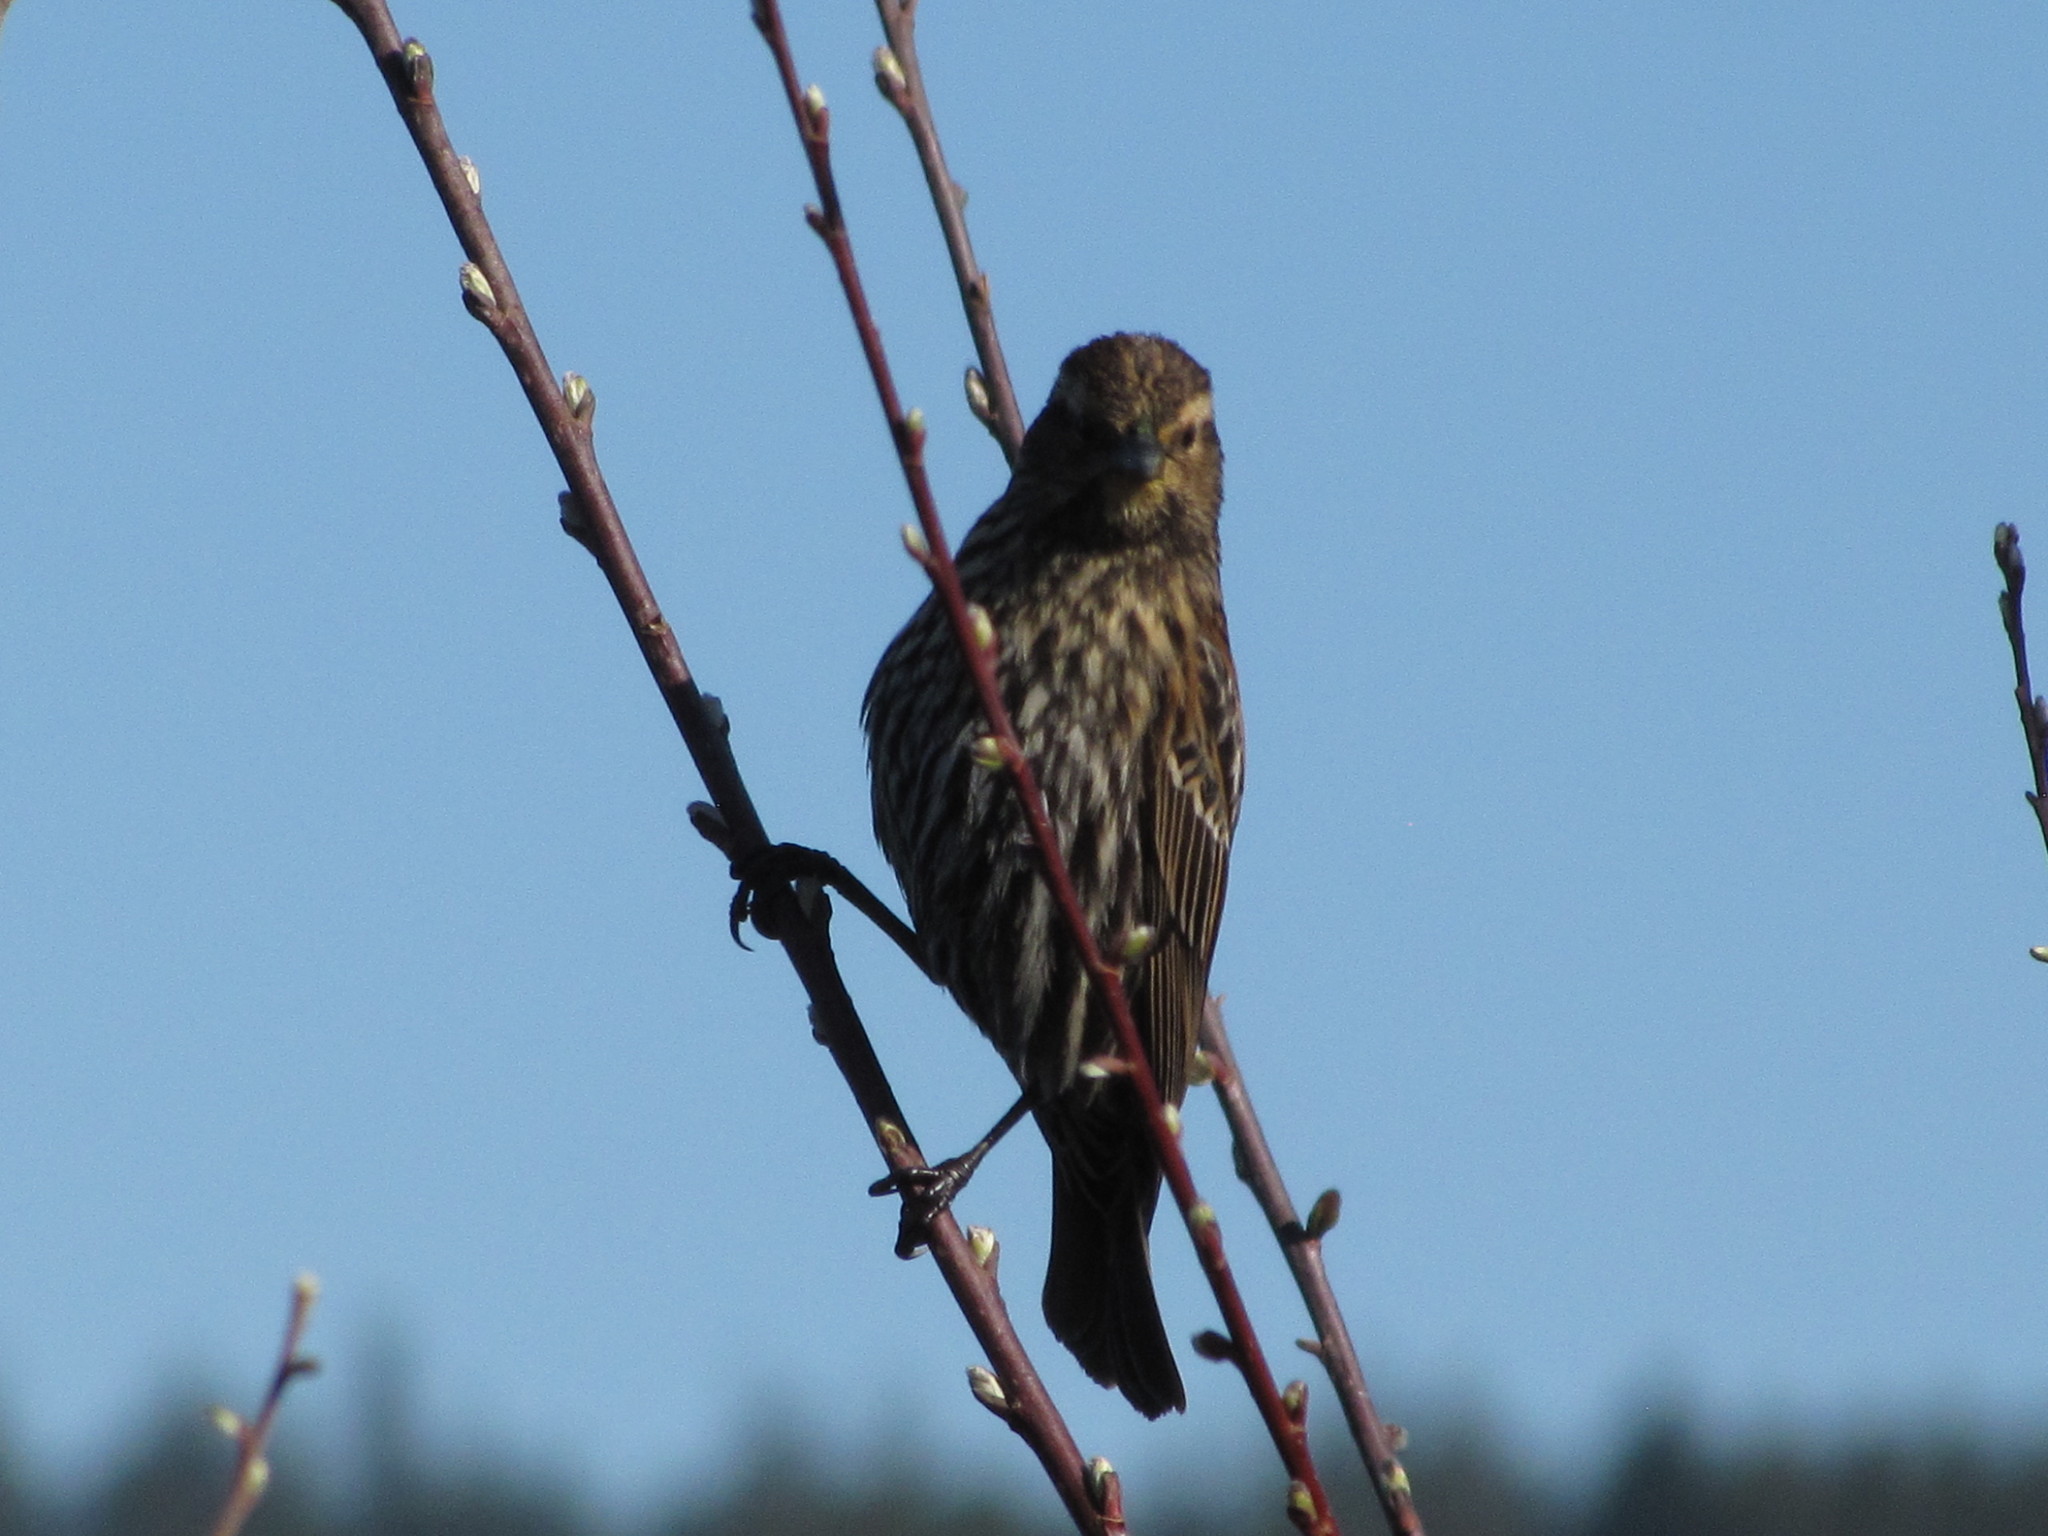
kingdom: Animalia
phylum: Chordata
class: Aves
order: Passeriformes
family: Icteridae
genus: Agelaius
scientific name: Agelaius phoeniceus
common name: Red-winged blackbird
